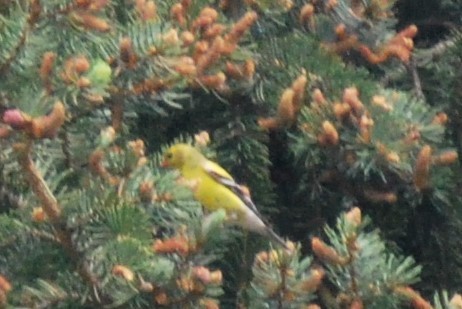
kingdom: Animalia
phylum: Chordata
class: Aves
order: Passeriformes
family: Fringillidae
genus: Spinus
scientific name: Spinus tristis
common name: American goldfinch
